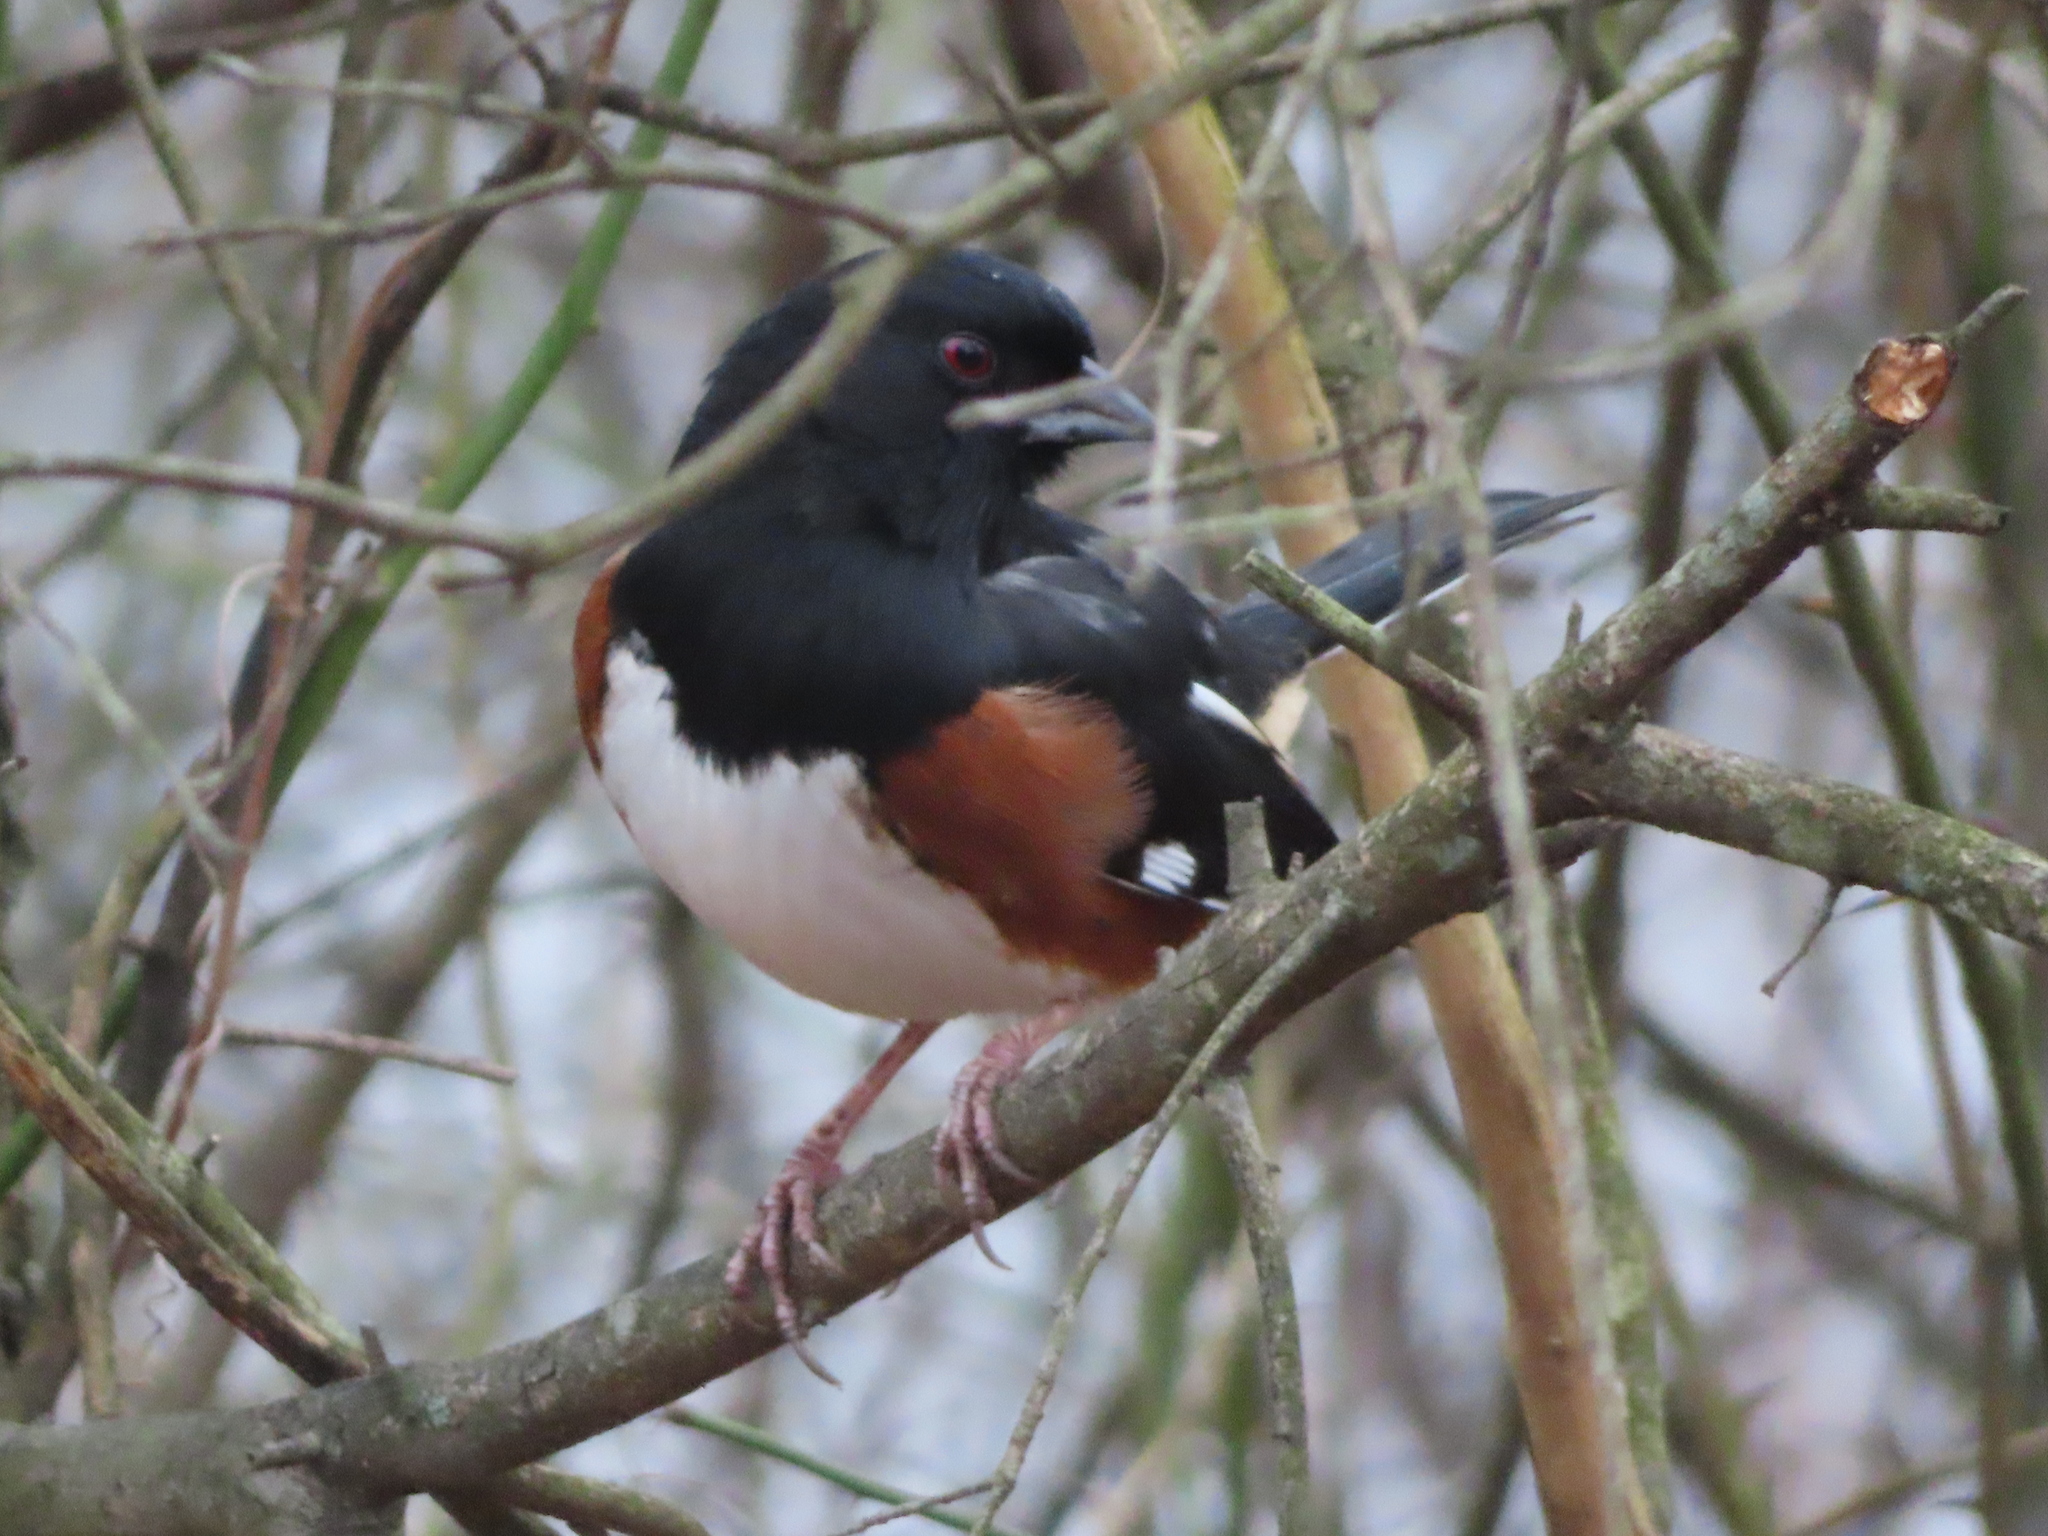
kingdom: Animalia
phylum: Chordata
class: Aves
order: Passeriformes
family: Passerellidae
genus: Pipilo
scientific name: Pipilo erythrophthalmus
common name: Eastern towhee
